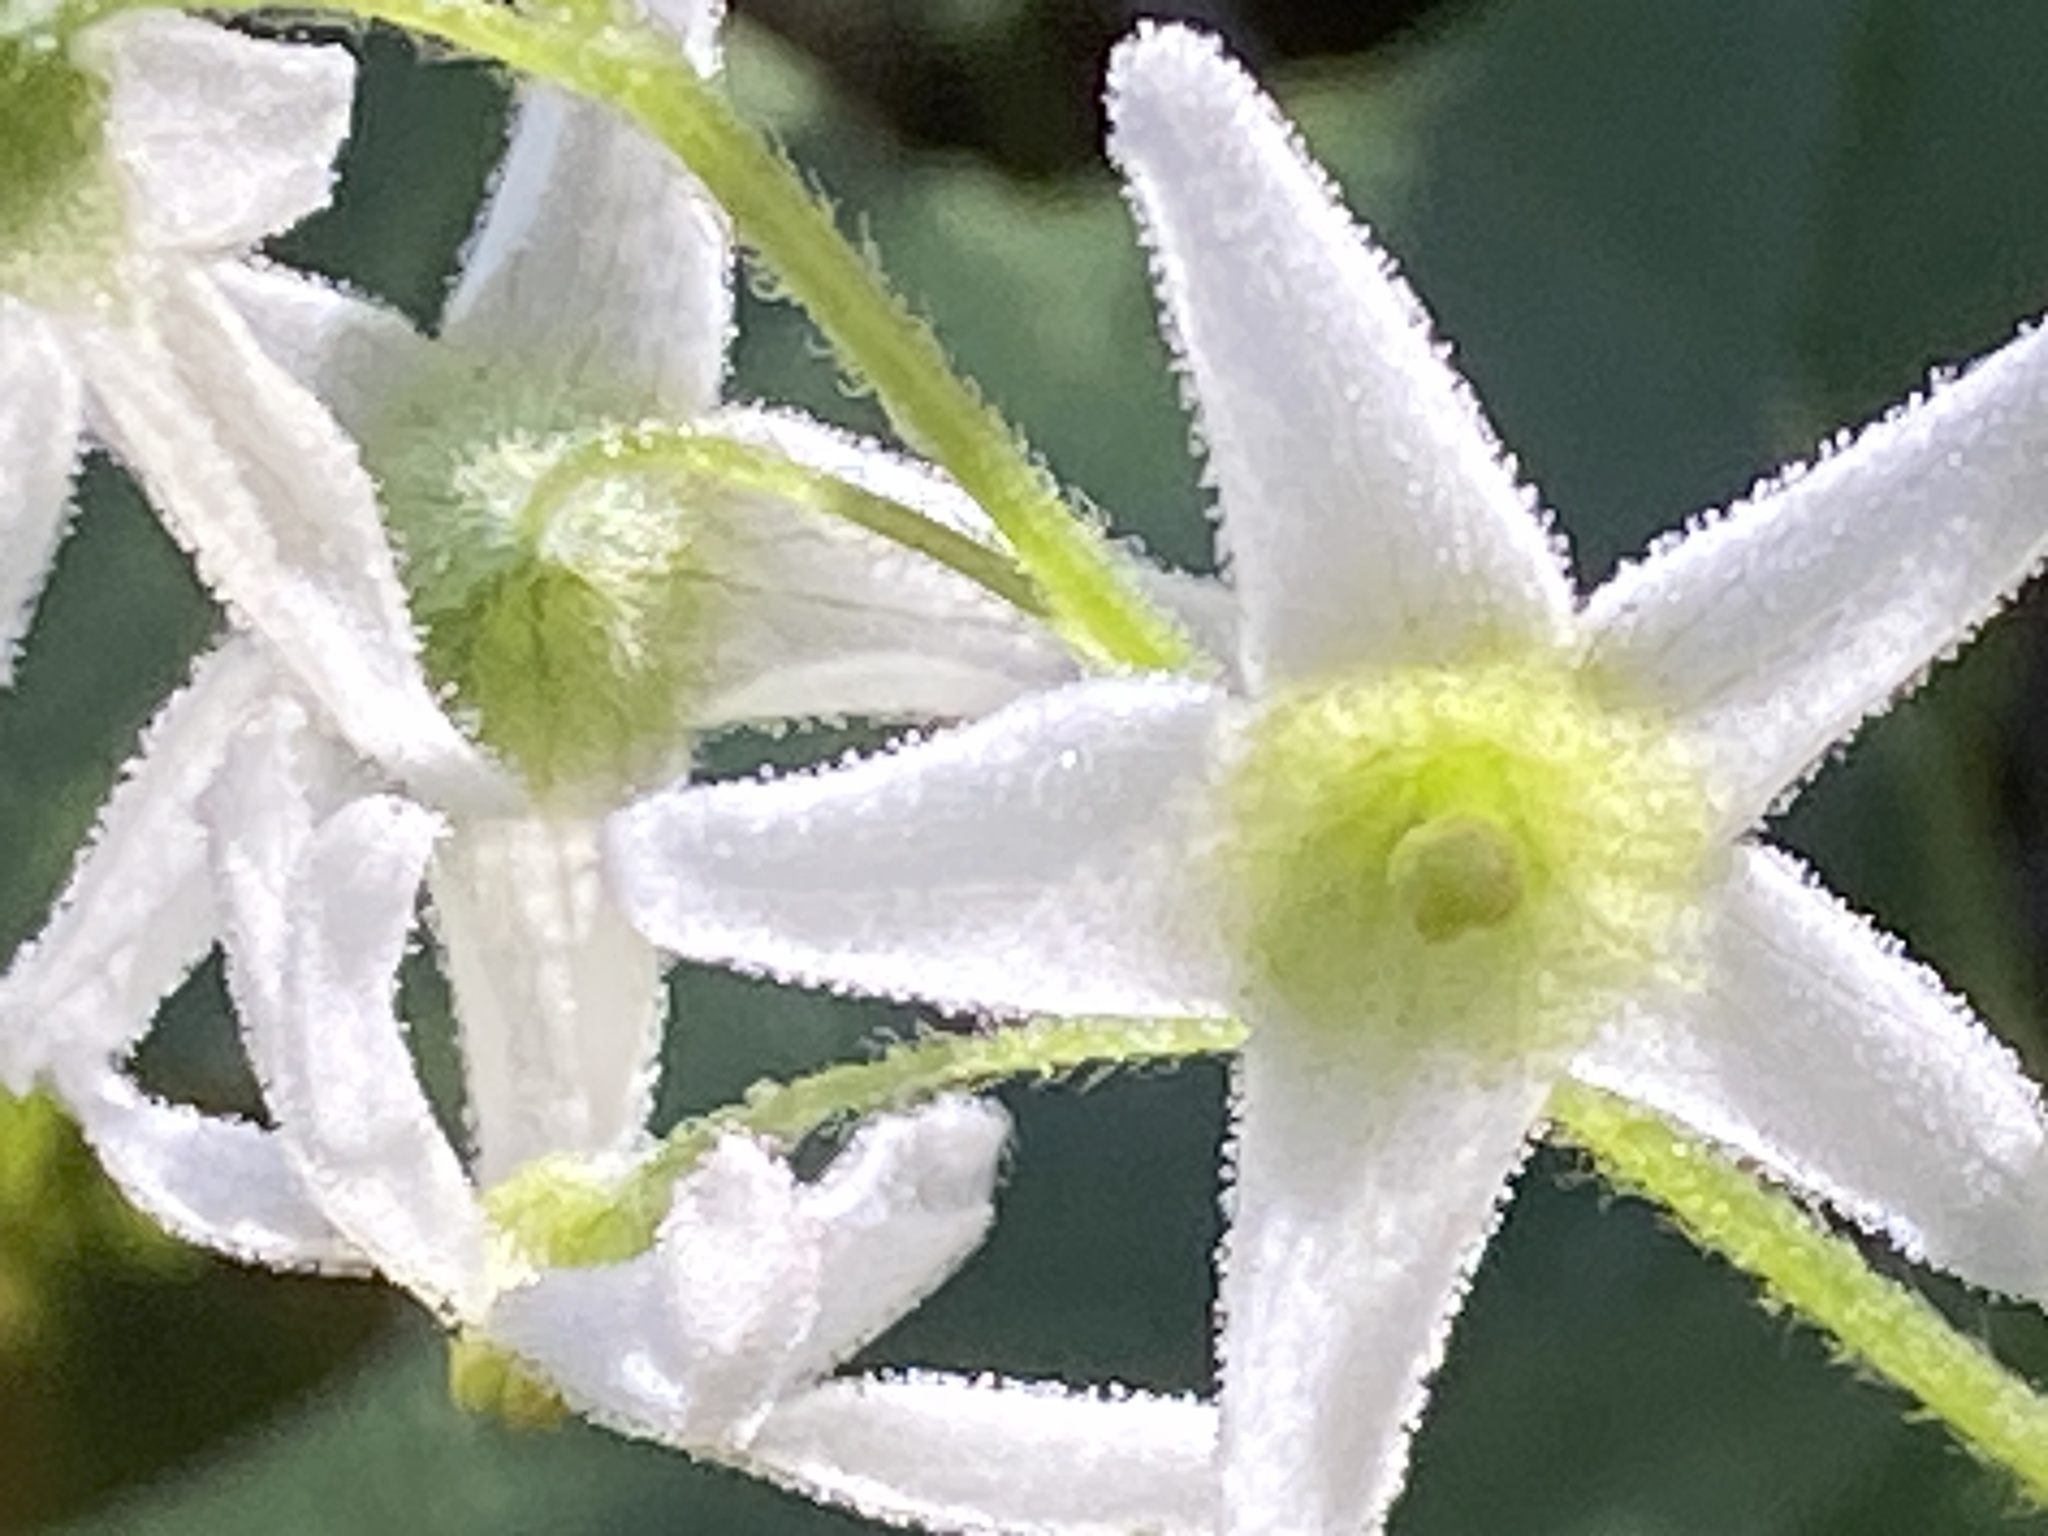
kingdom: Plantae
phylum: Tracheophyta
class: Magnoliopsida
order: Cucurbitales
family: Cucurbitaceae
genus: Marah
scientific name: Marah macrocarpa
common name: Cucamonga manroot
